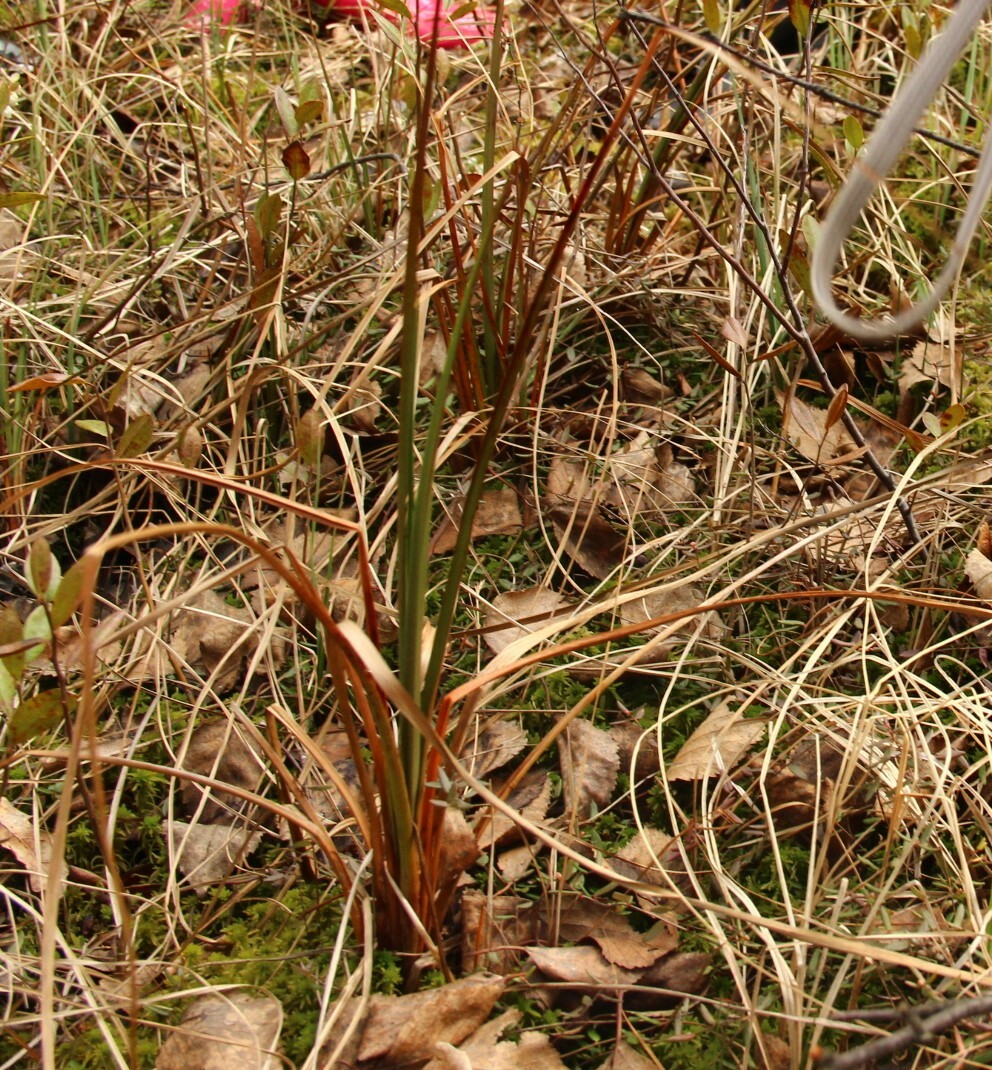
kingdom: Plantae
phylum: Tracheophyta
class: Liliopsida
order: Poales
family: Cyperaceae
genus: Eriophorum
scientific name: Eriophorum angustifolium
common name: Common cottongrass
